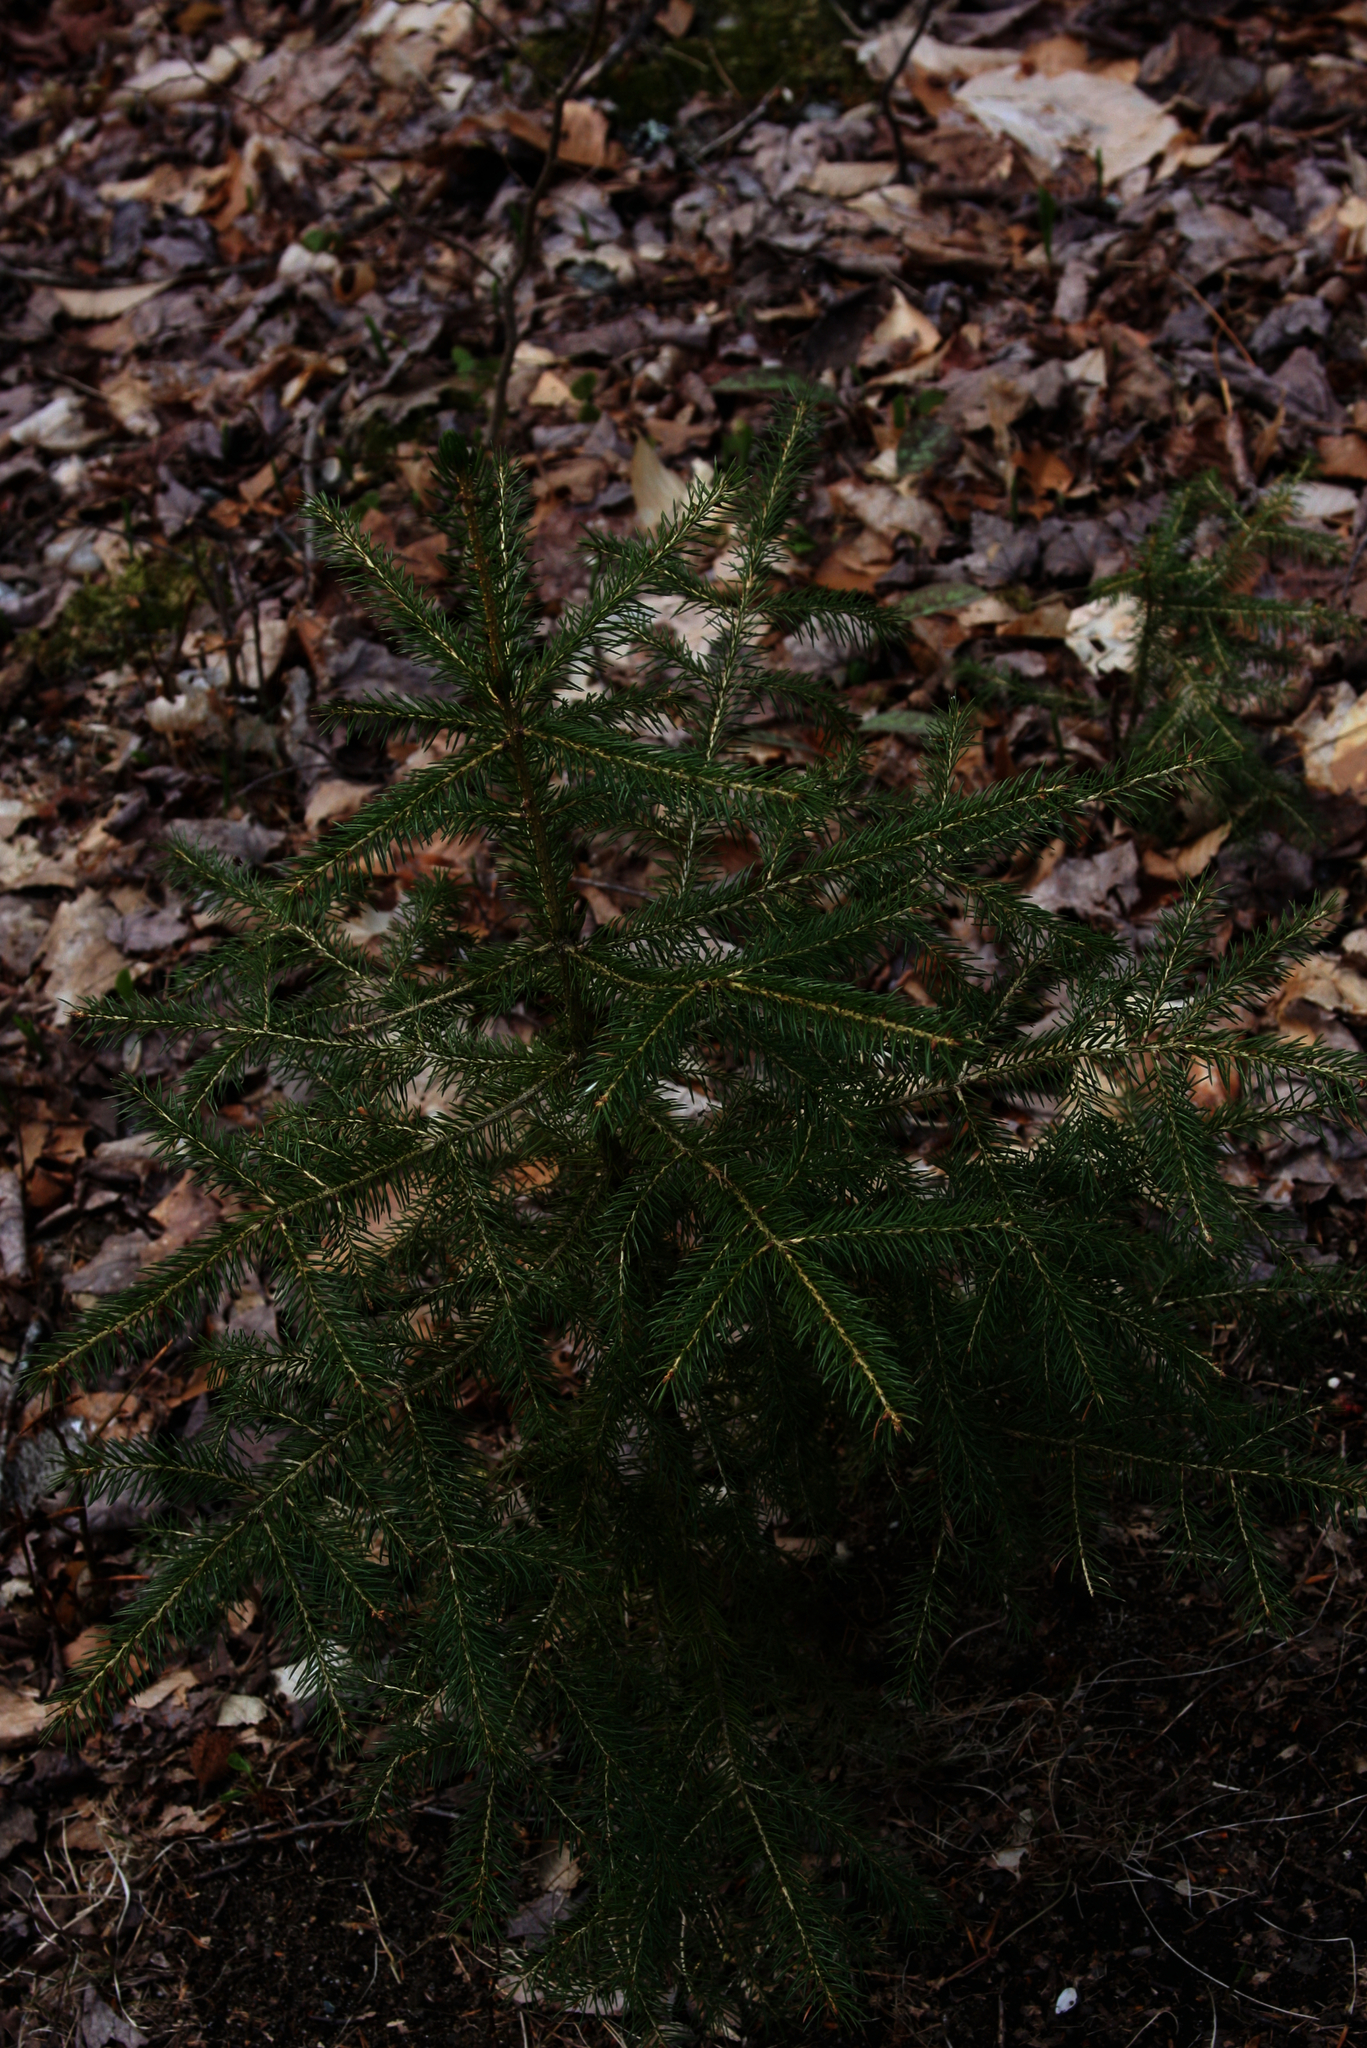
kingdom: Plantae
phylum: Tracheophyta
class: Pinopsida
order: Pinales
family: Pinaceae
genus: Picea
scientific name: Picea rubens
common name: Red spruce
